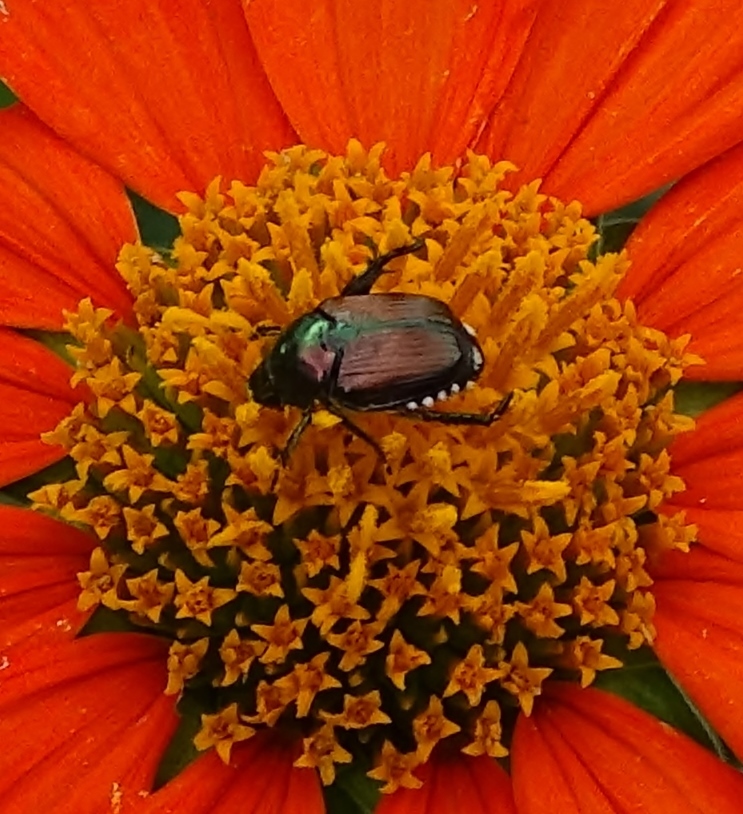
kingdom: Animalia
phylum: Arthropoda
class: Insecta
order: Coleoptera
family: Scarabaeidae
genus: Popillia
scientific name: Popillia japonica
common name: Japanese beetle
